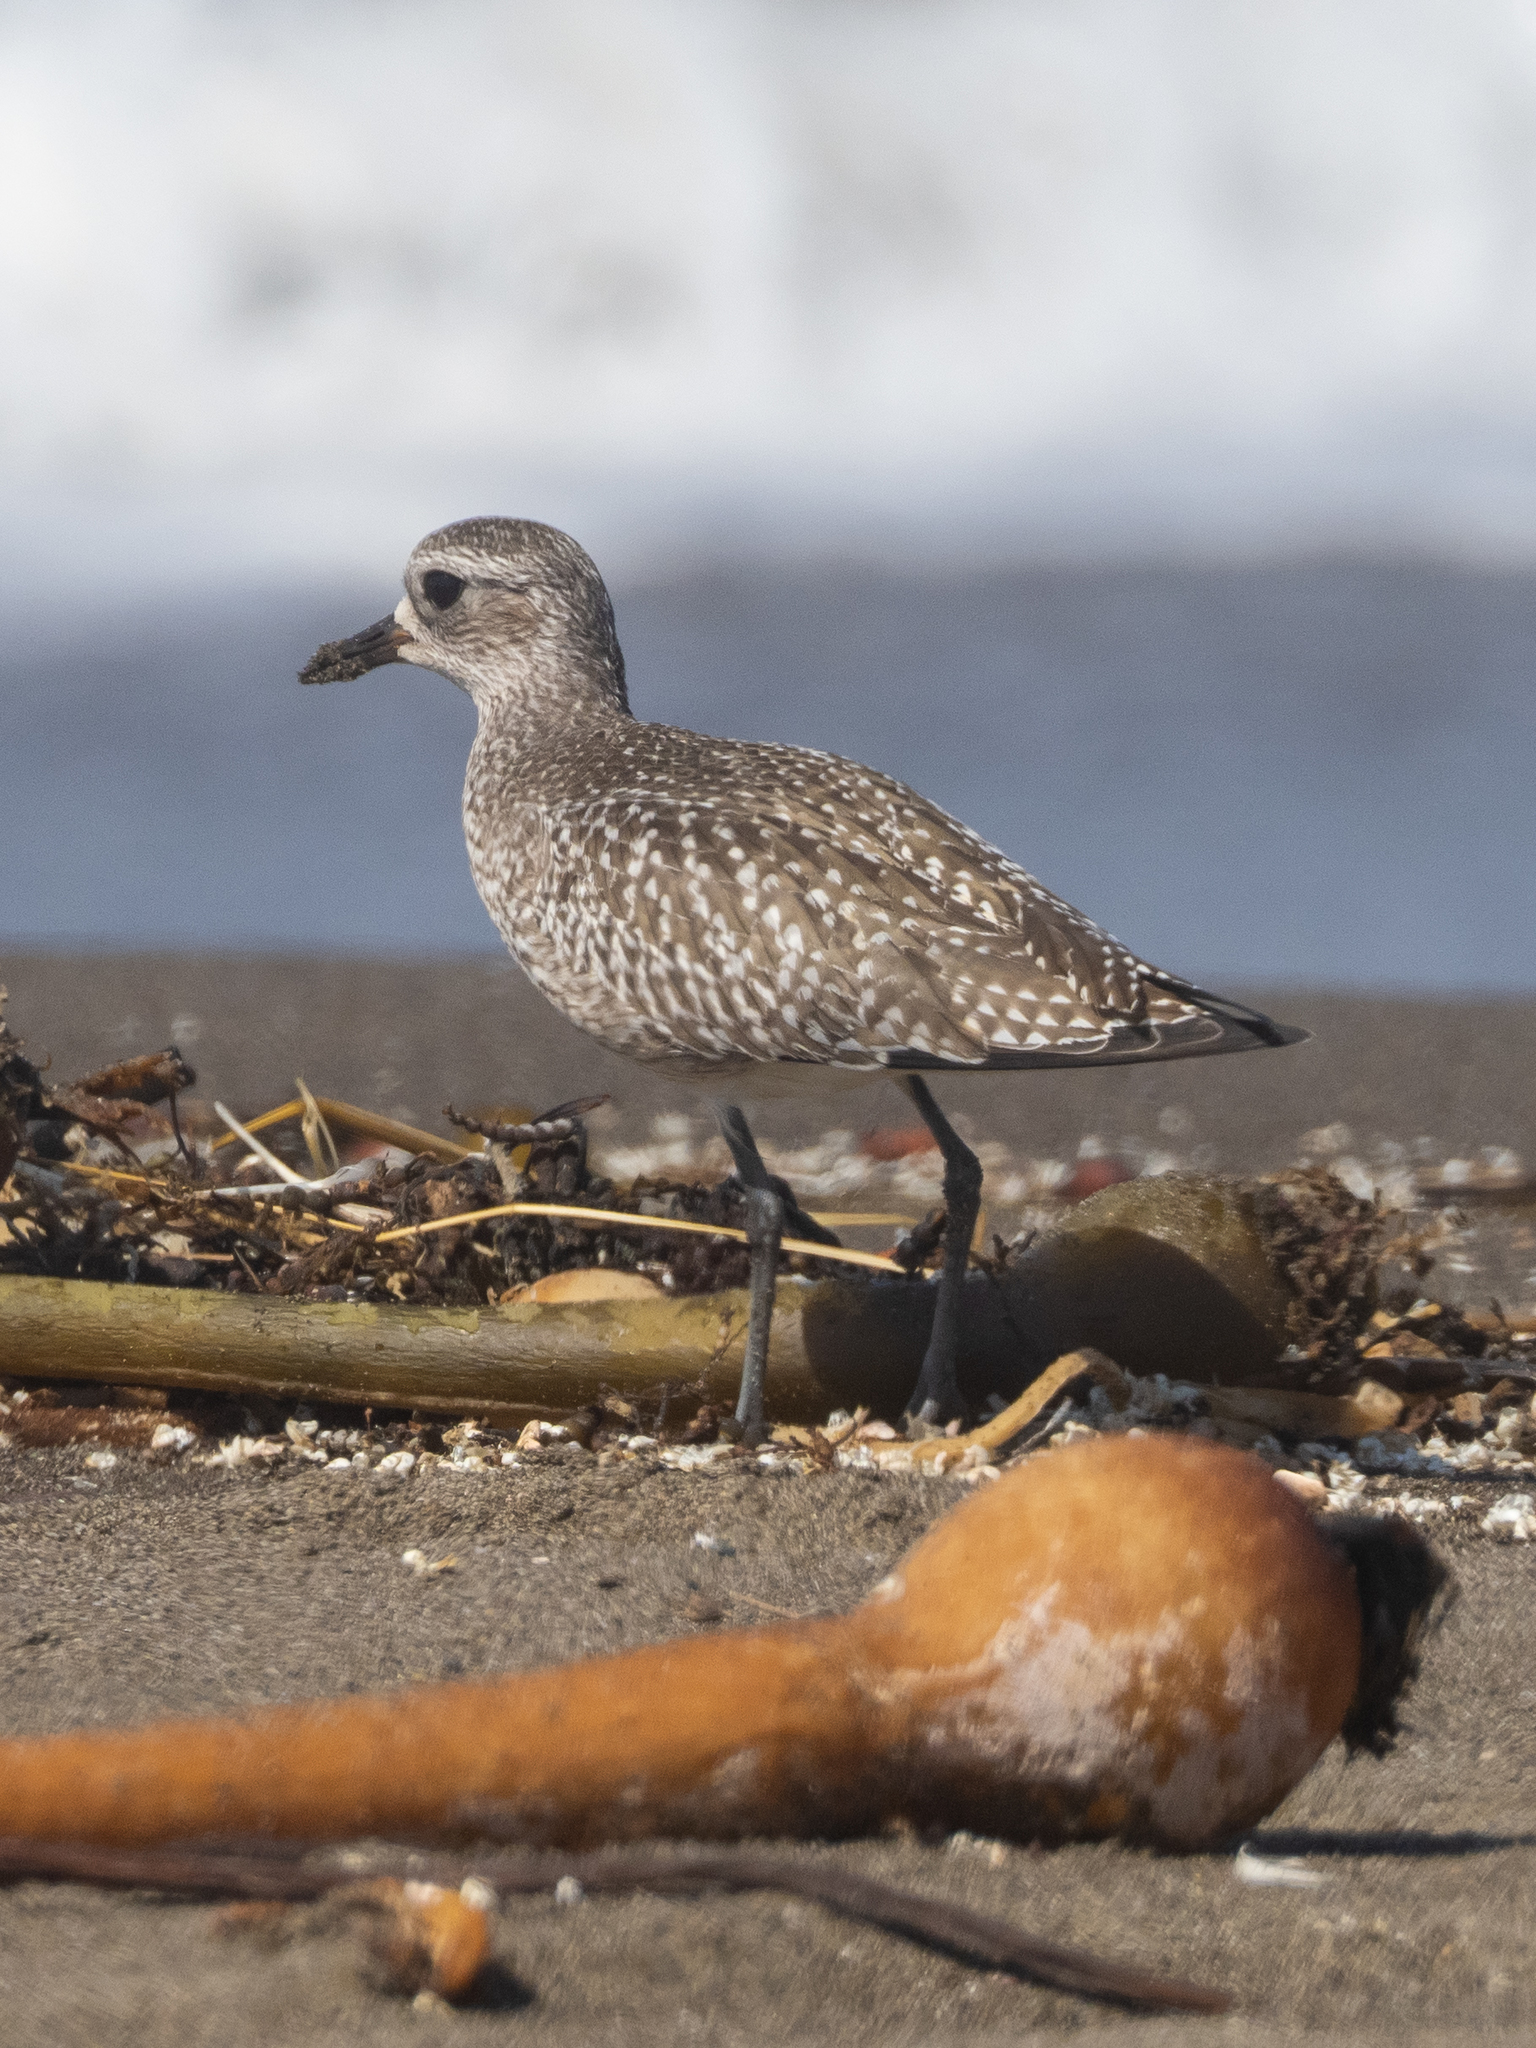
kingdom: Animalia
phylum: Chordata
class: Aves
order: Charadriiformes
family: Charadriidae
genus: Pluvialis
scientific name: Pluvialis squatarola
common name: Grey plover
